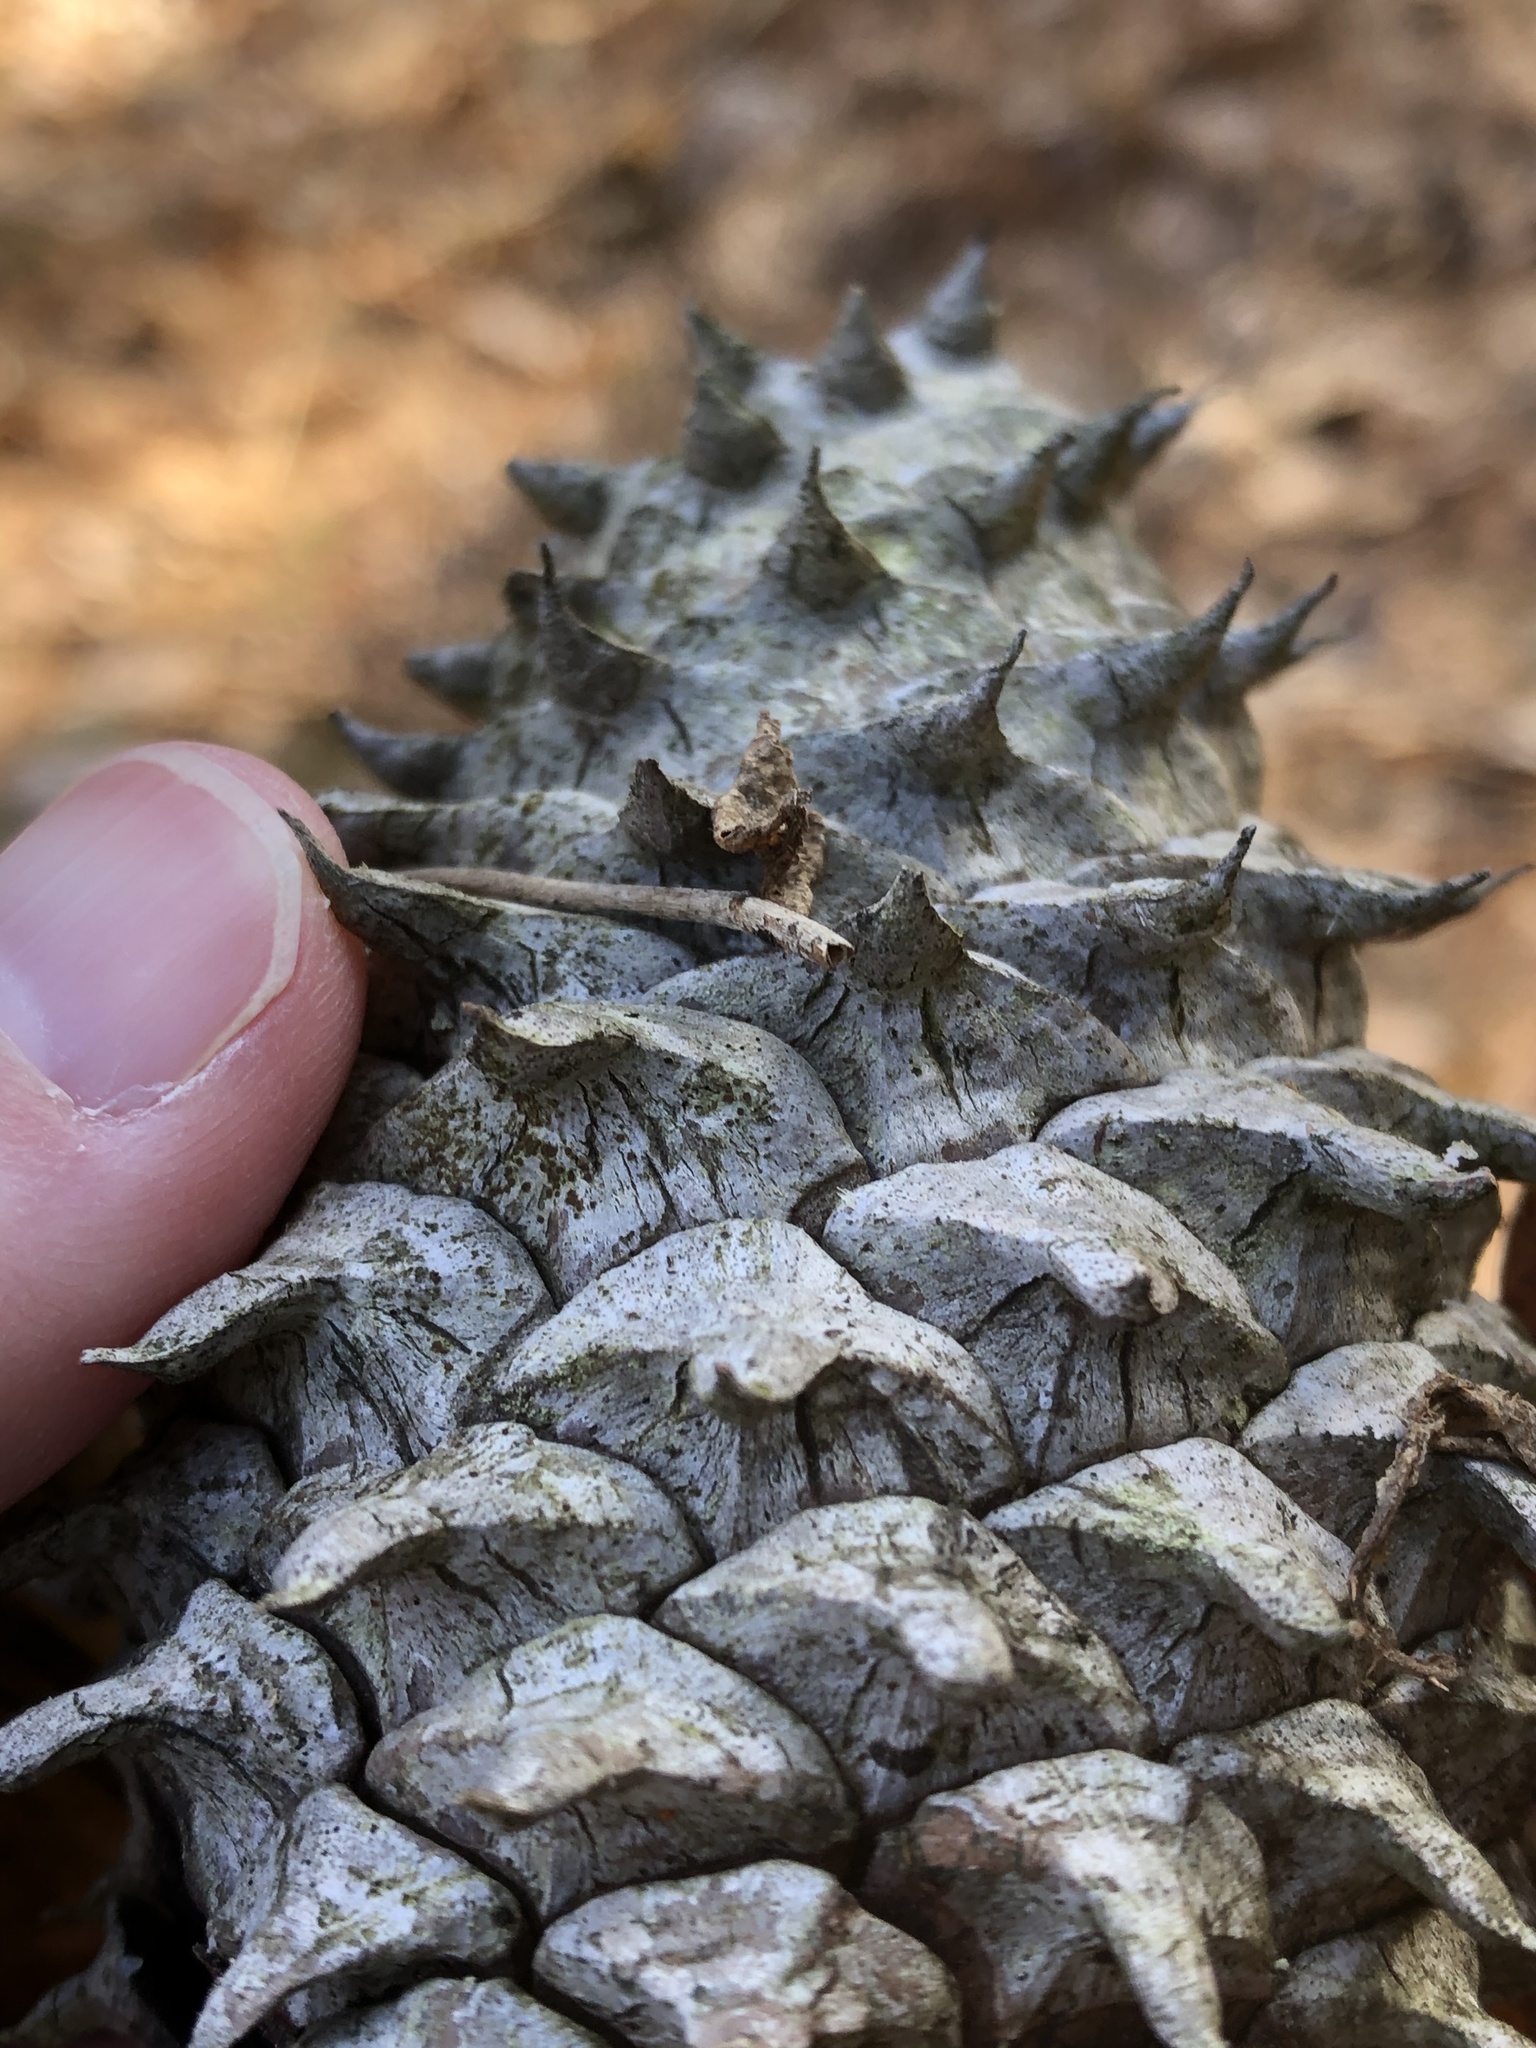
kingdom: Plantae
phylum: Tracheophyta
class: Pinopsida
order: Pinales
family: Pinaceae
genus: Pinus
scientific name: Pinus pungens
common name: Hickory pine
